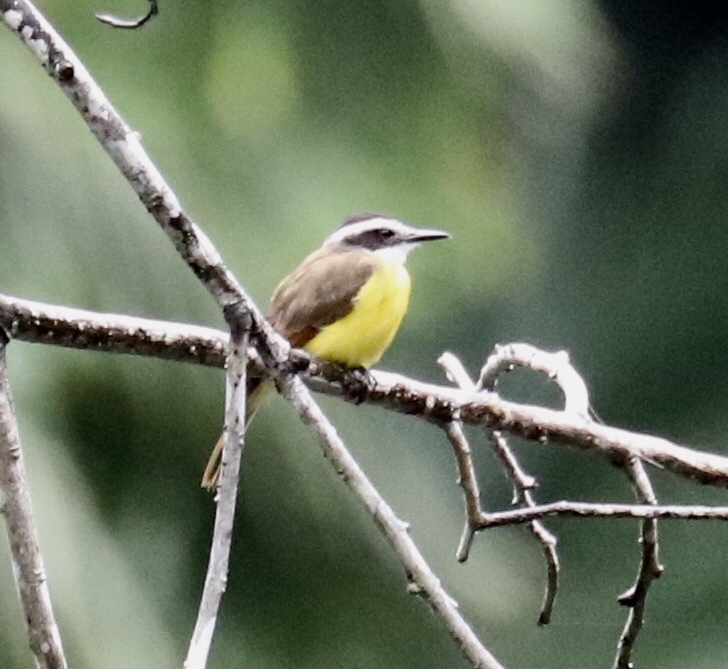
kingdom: Animalia
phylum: Chordata
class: Aves
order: Passeriformes
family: Tyrannidae
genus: Pitangus
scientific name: Pitangus lictor
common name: Lesser kiskadee
